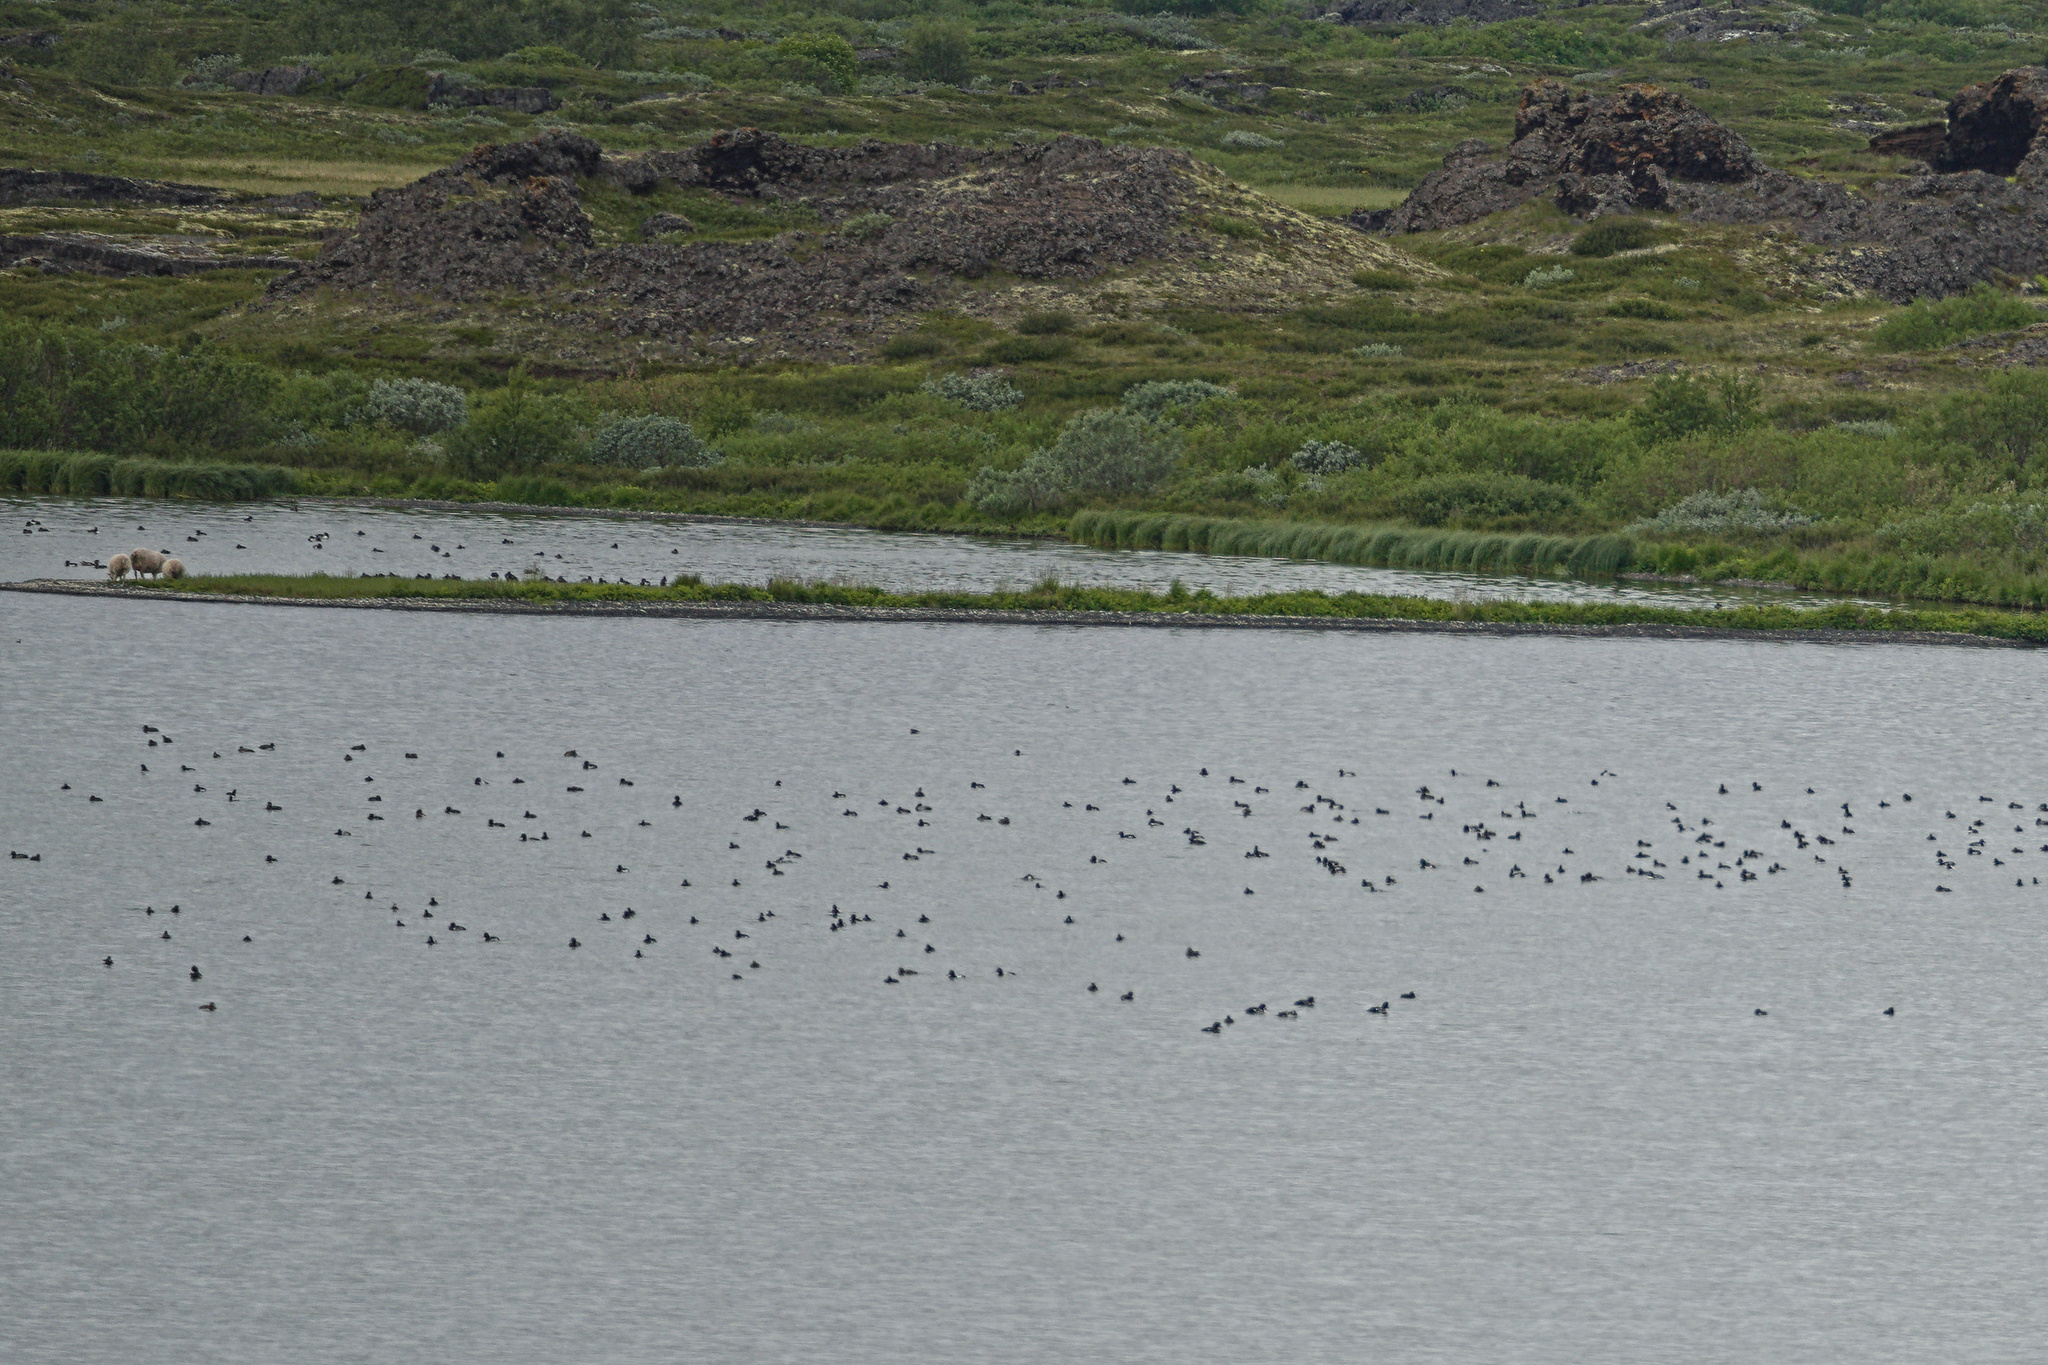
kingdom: Animalia
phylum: Chordata
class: Aves
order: Anseriformes
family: Anatidae
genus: Aythya
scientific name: Aythya fuligula
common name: Tufted duck
